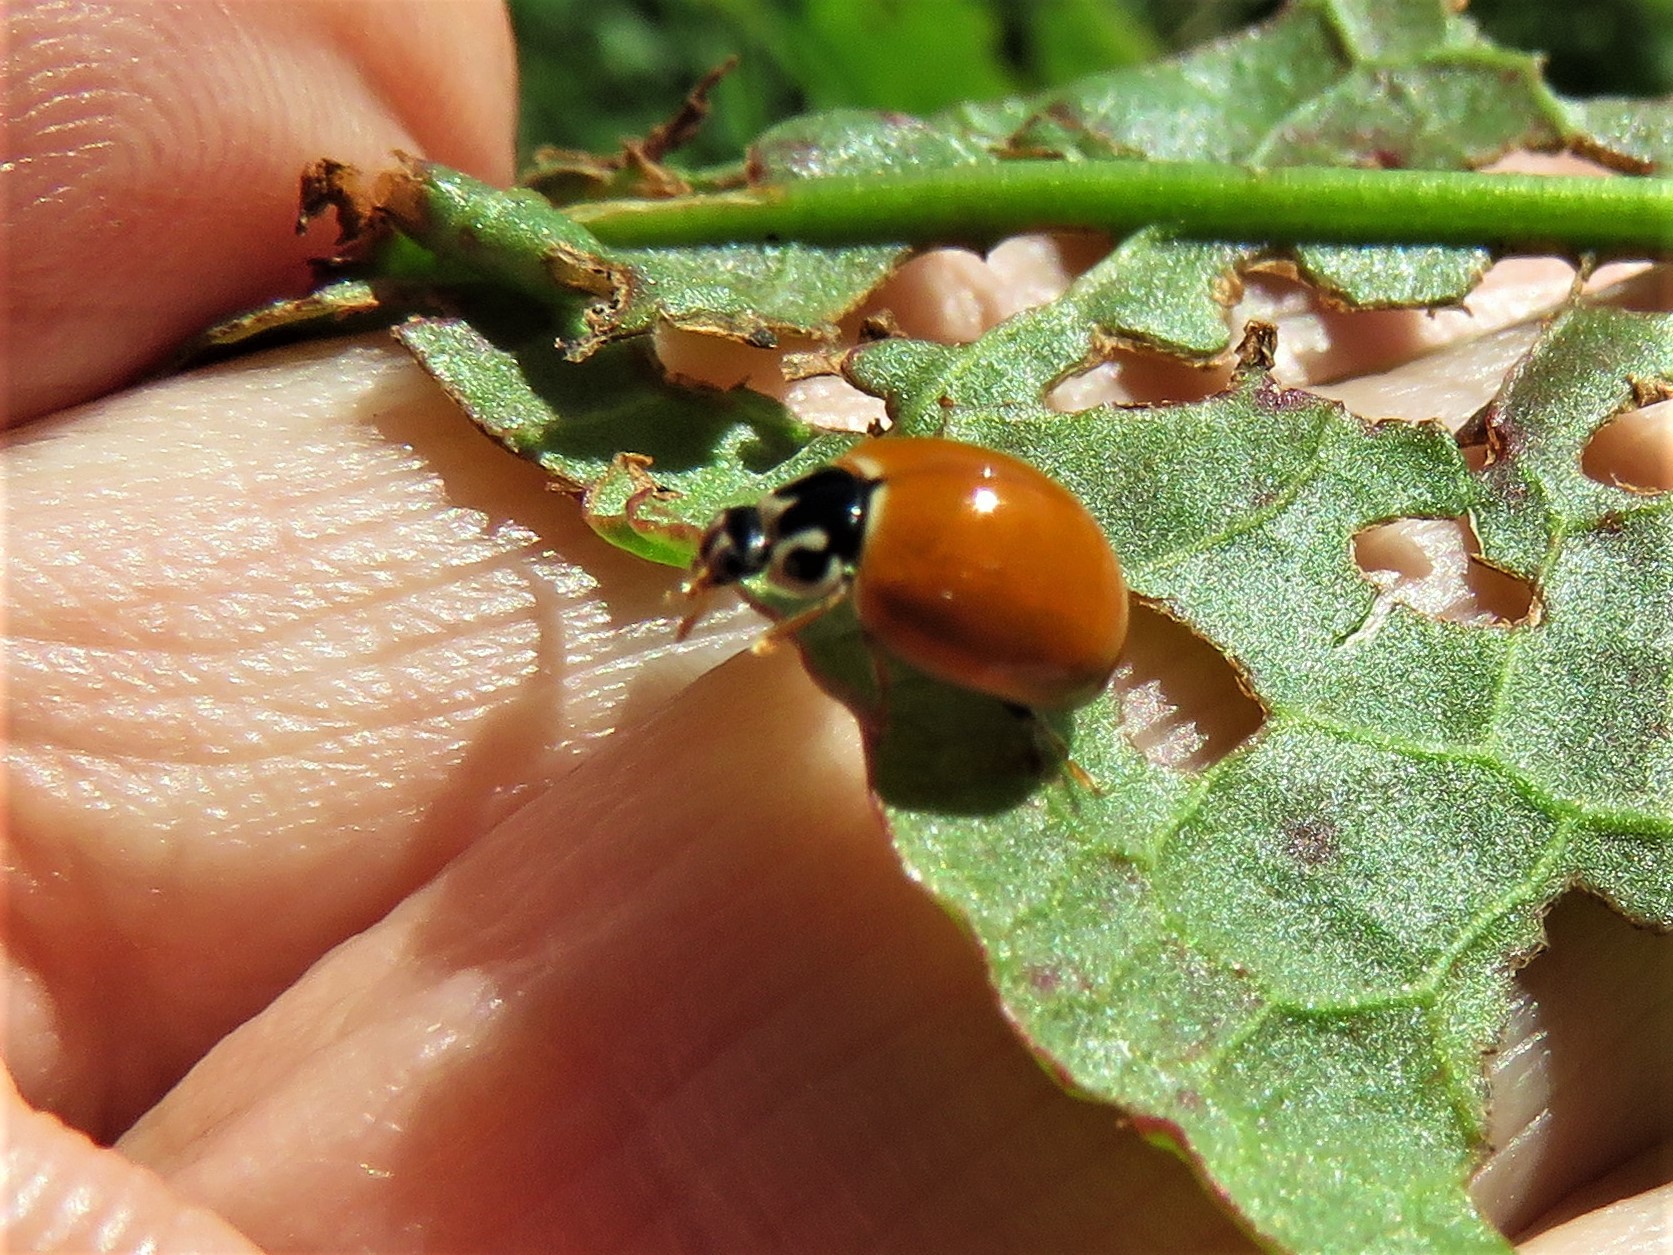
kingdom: Animalia
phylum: Arthropoda
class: Insecta
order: Coleoptera
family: Coccinellidae
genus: Cycloneda
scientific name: Cycloneda munda
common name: Polished lady beetle
